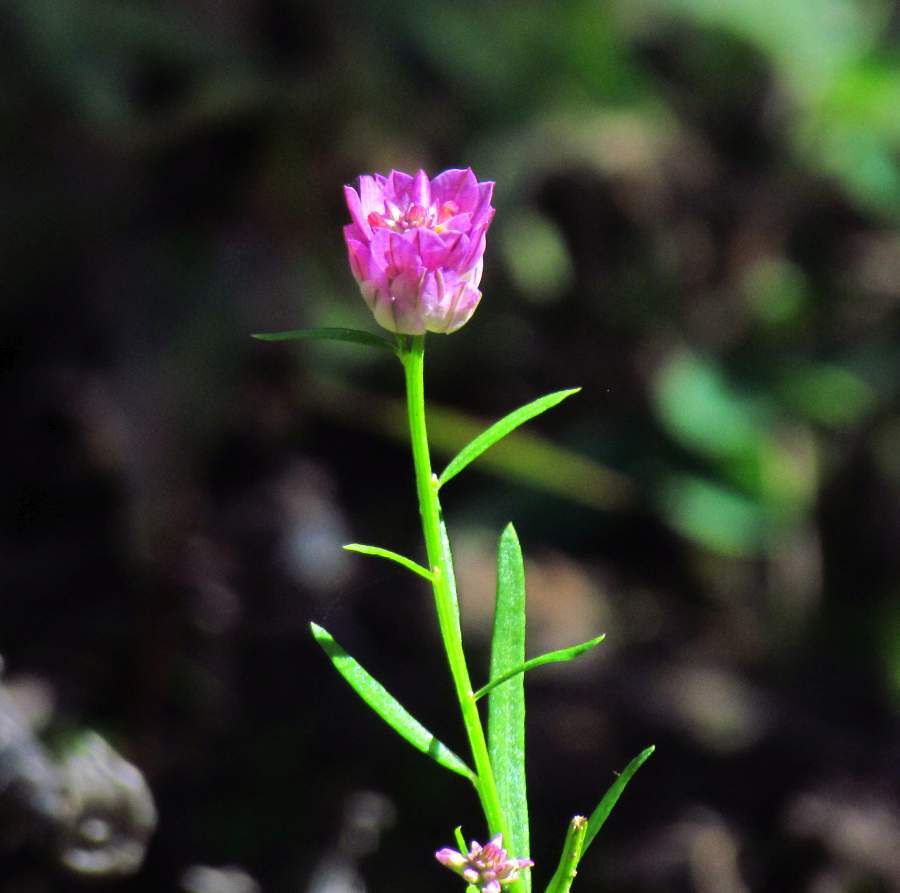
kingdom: Plantae
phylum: Tracheophyta
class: Magnoliopsida
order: Fabales
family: Polygalaceae
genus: Polygala
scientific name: Polygala sanguinea
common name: Blood milkwort
